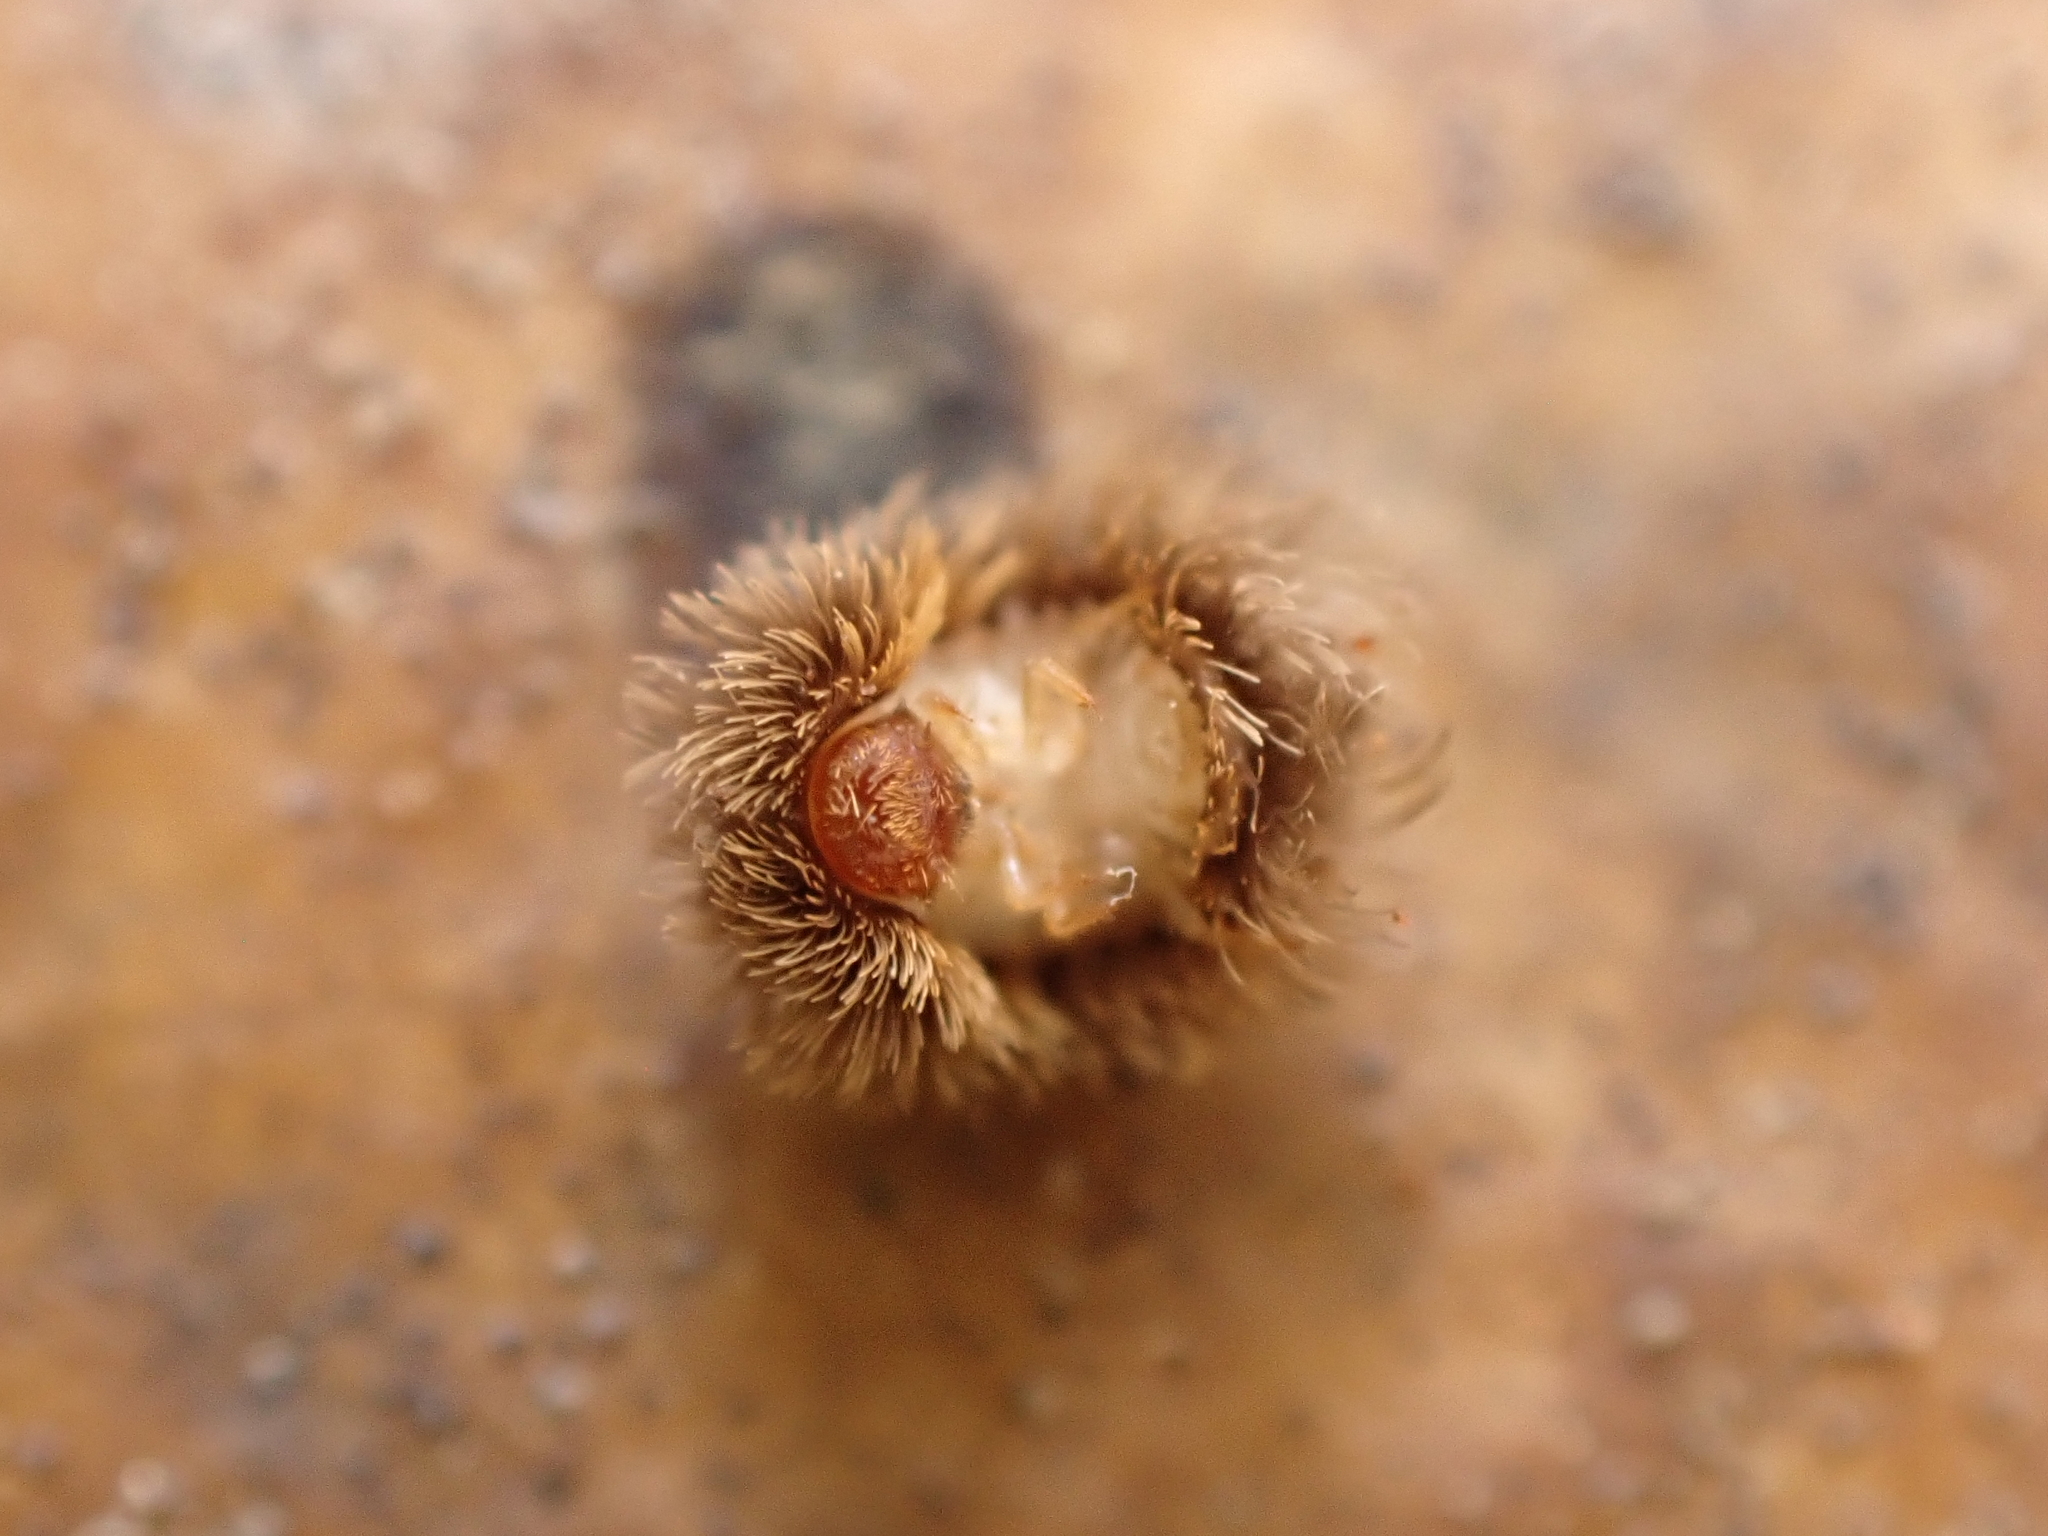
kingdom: Animalia
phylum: Arthropoda
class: Insecta
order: Coleoptera
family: Dermestidae
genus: Hexanodes
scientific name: Hexanodes
